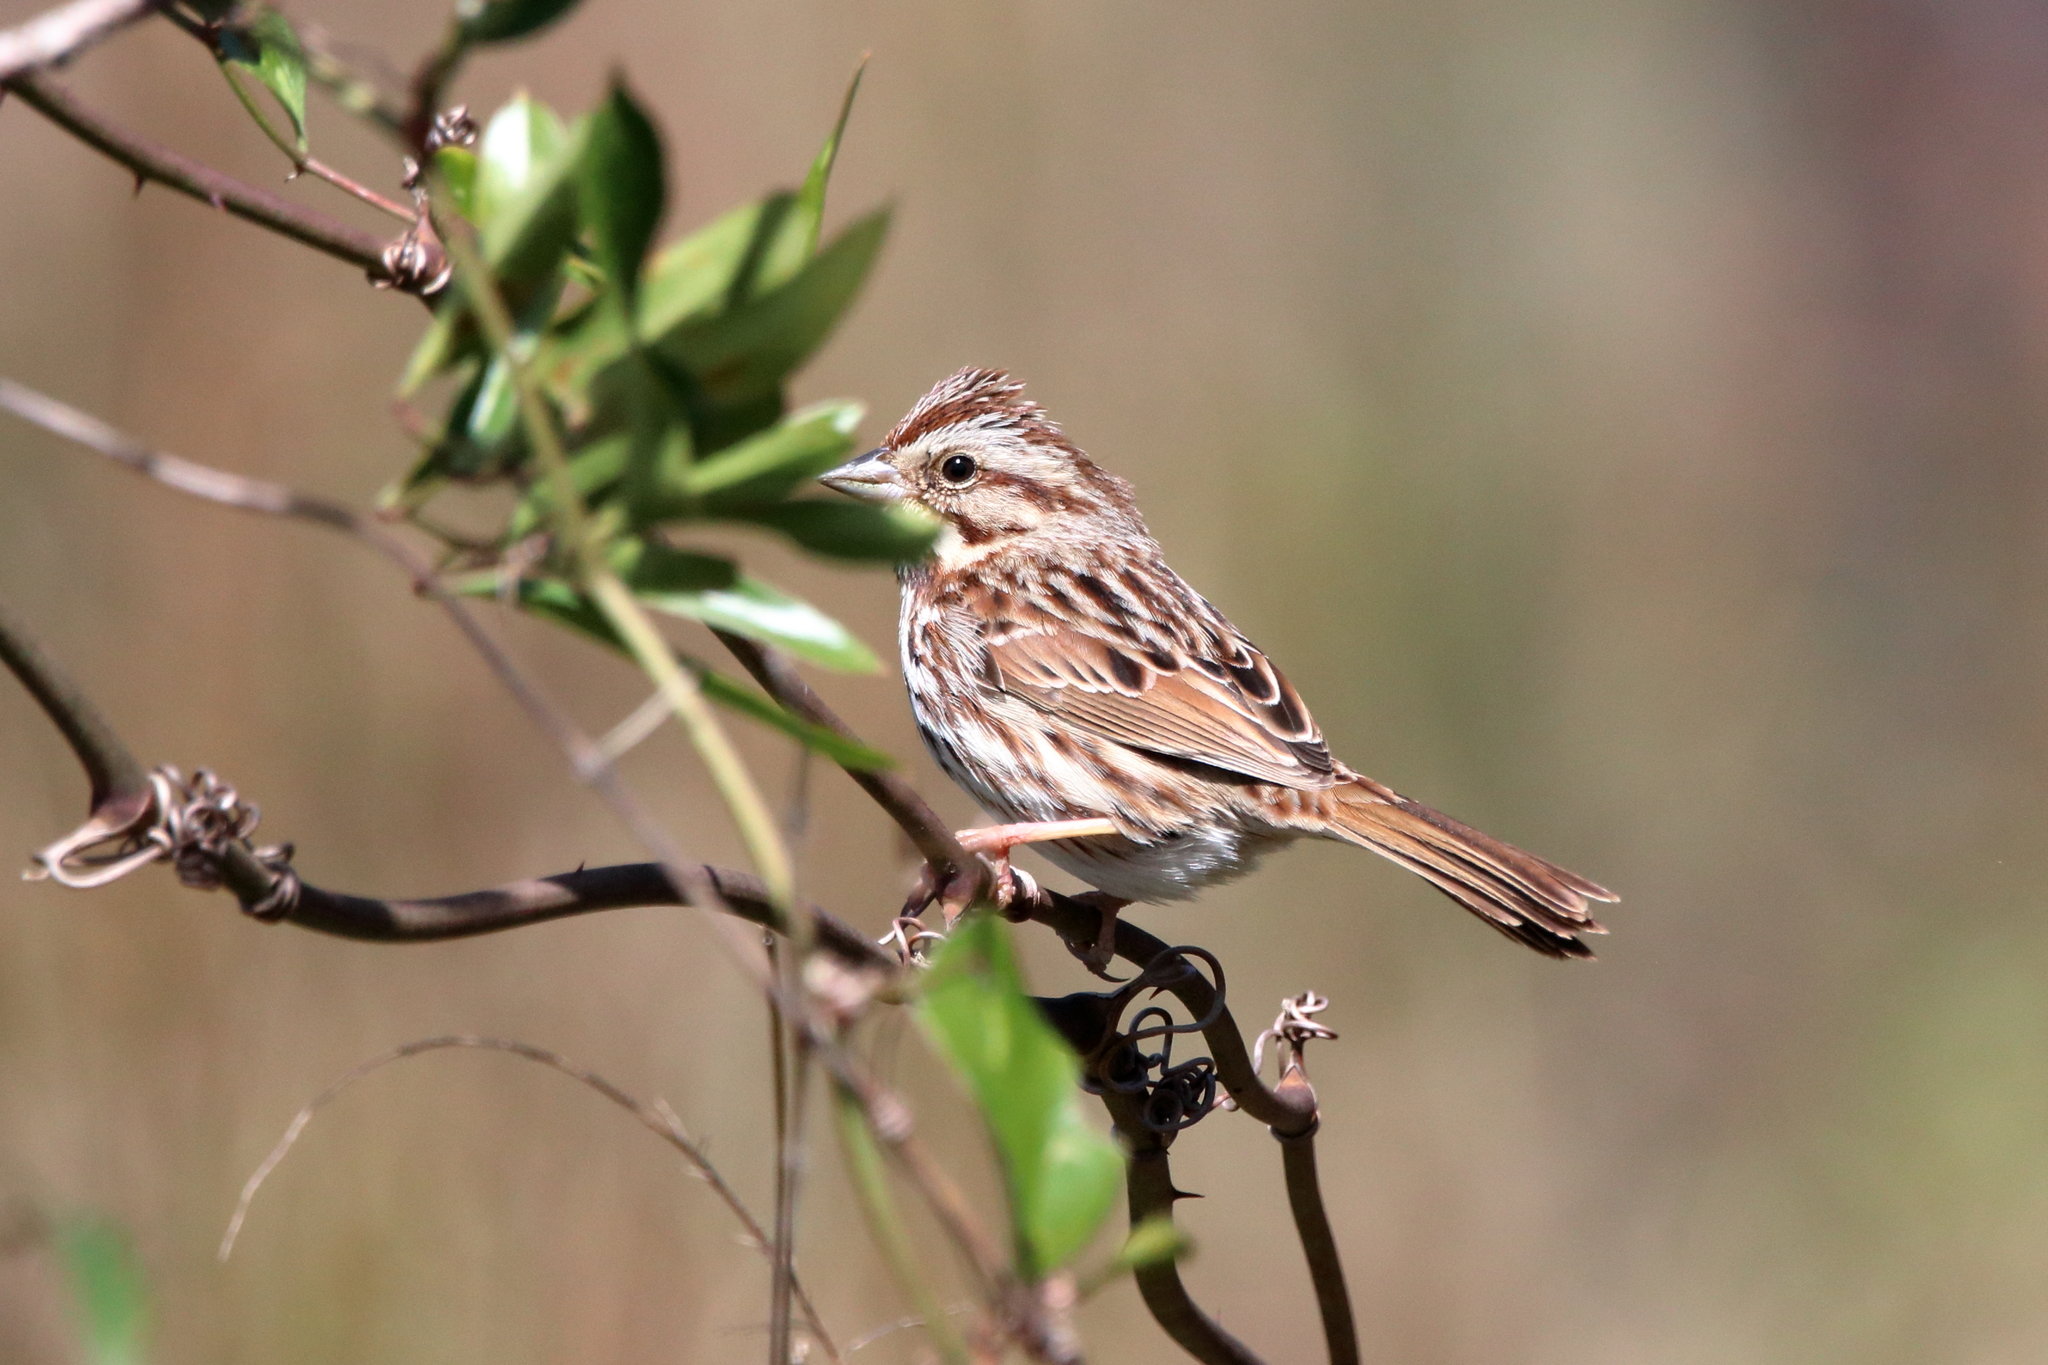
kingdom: Animalia
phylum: Chordata
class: Aves
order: Passeriformes
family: Passerellidae
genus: Melospiza
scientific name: Melospiza melodia
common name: Song sparrow
